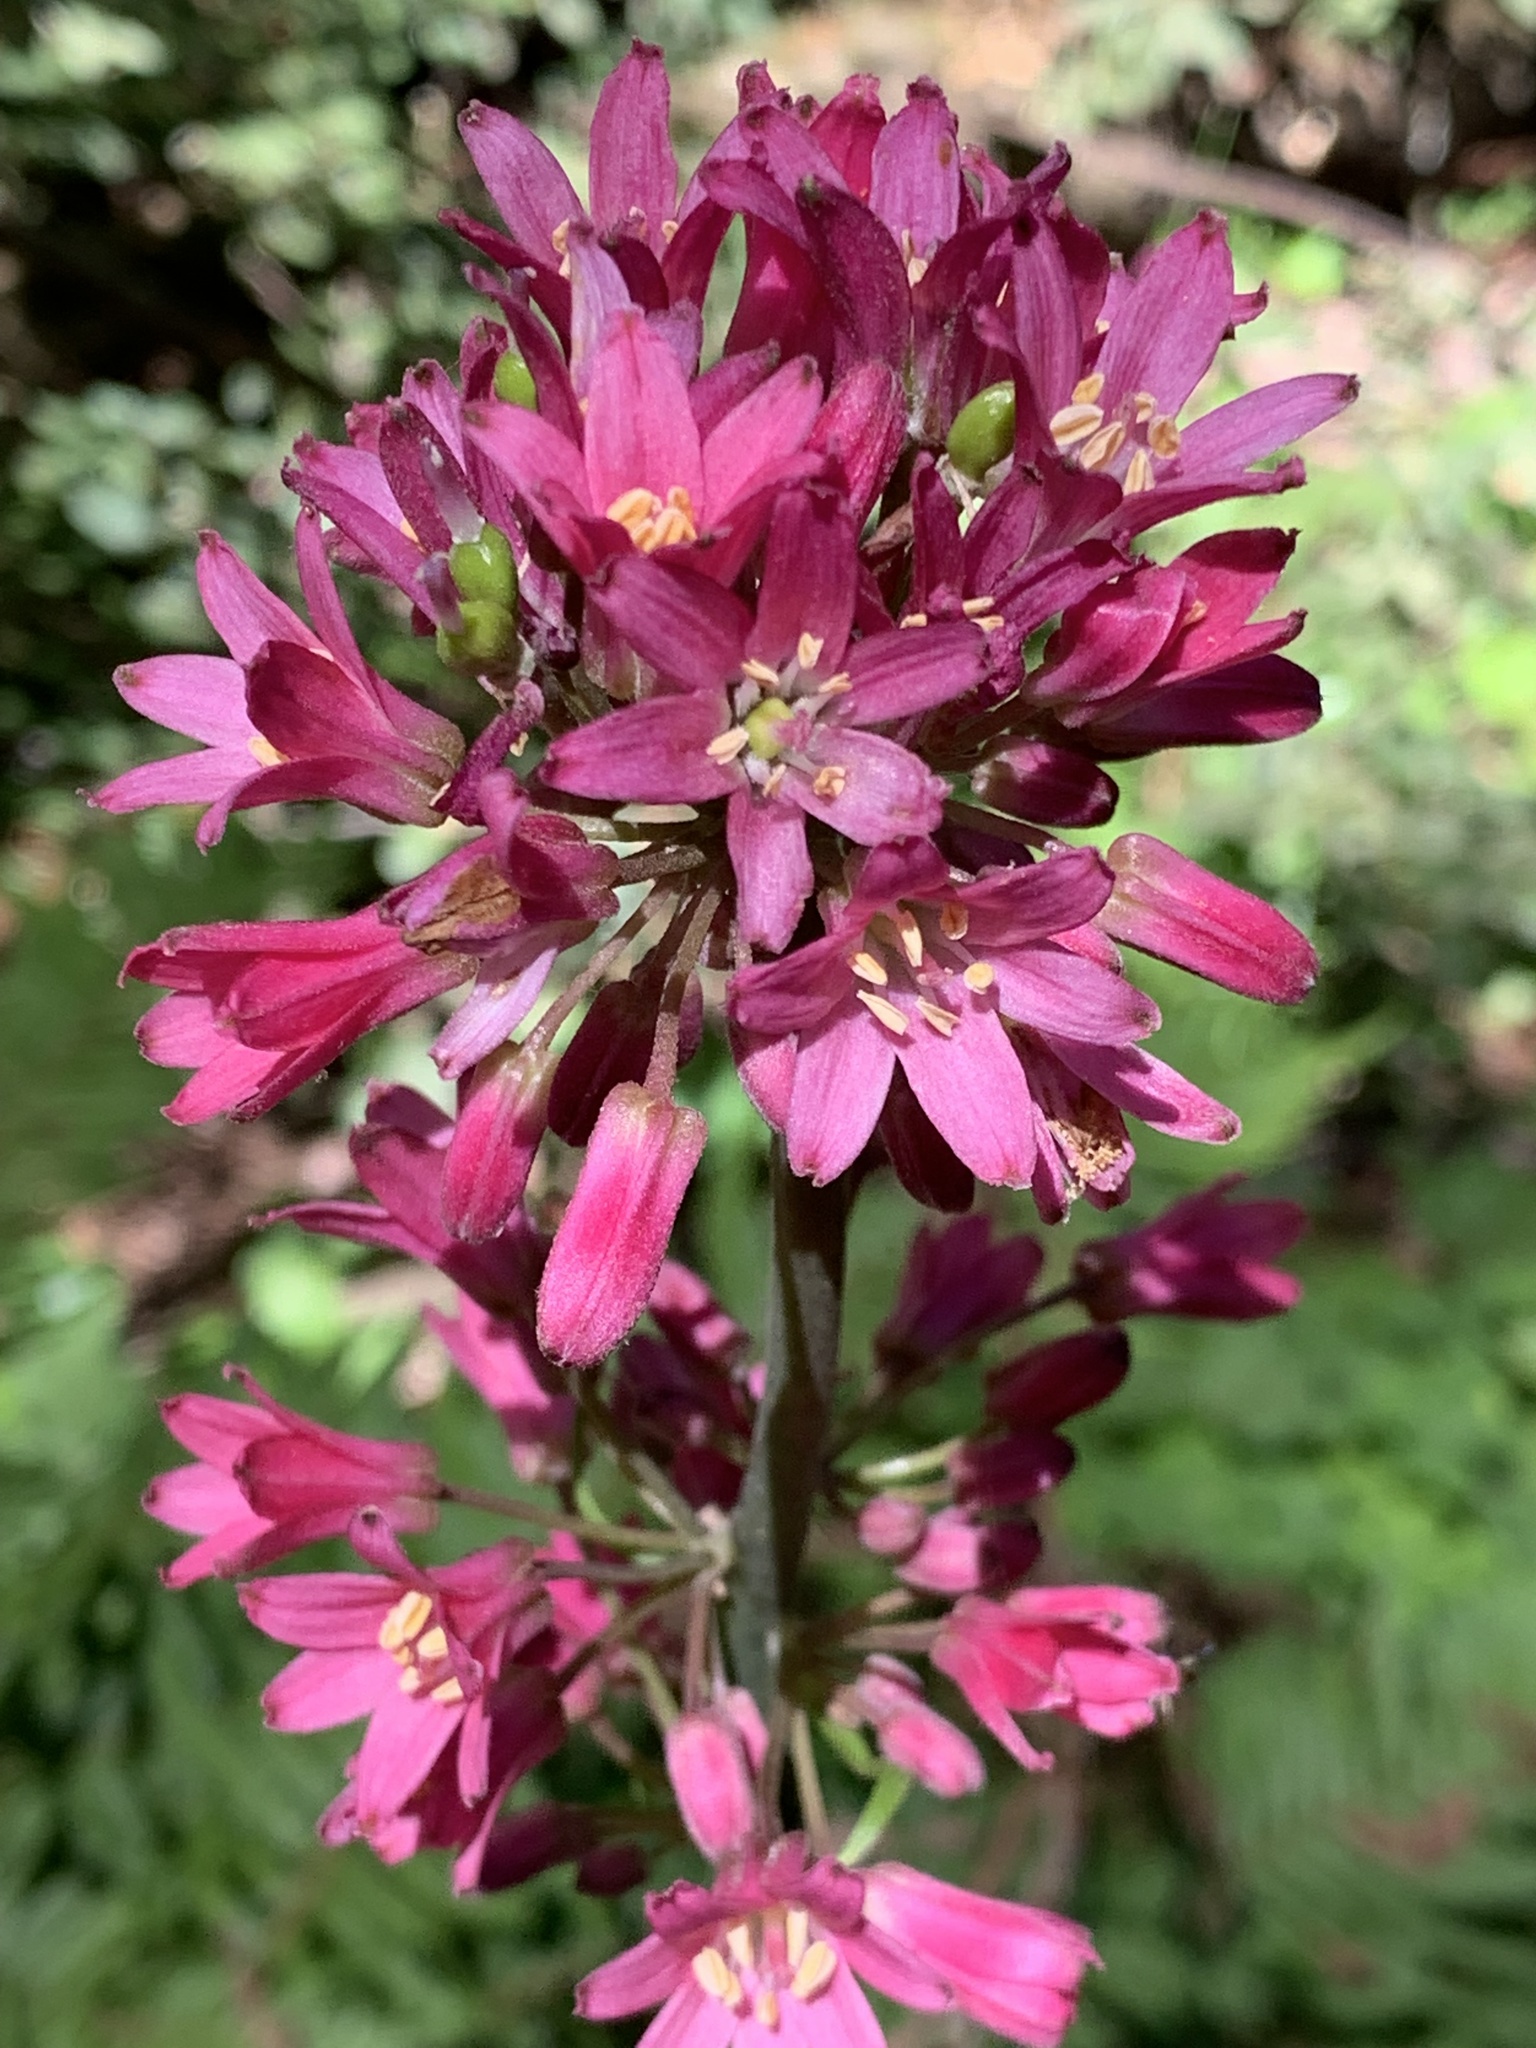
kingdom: Plantae
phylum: Tracheophyta
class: Liliopsida
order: Liliales
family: Liliaceae
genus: Clintonia
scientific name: Clintonia andrewsiana
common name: Red clintonia
